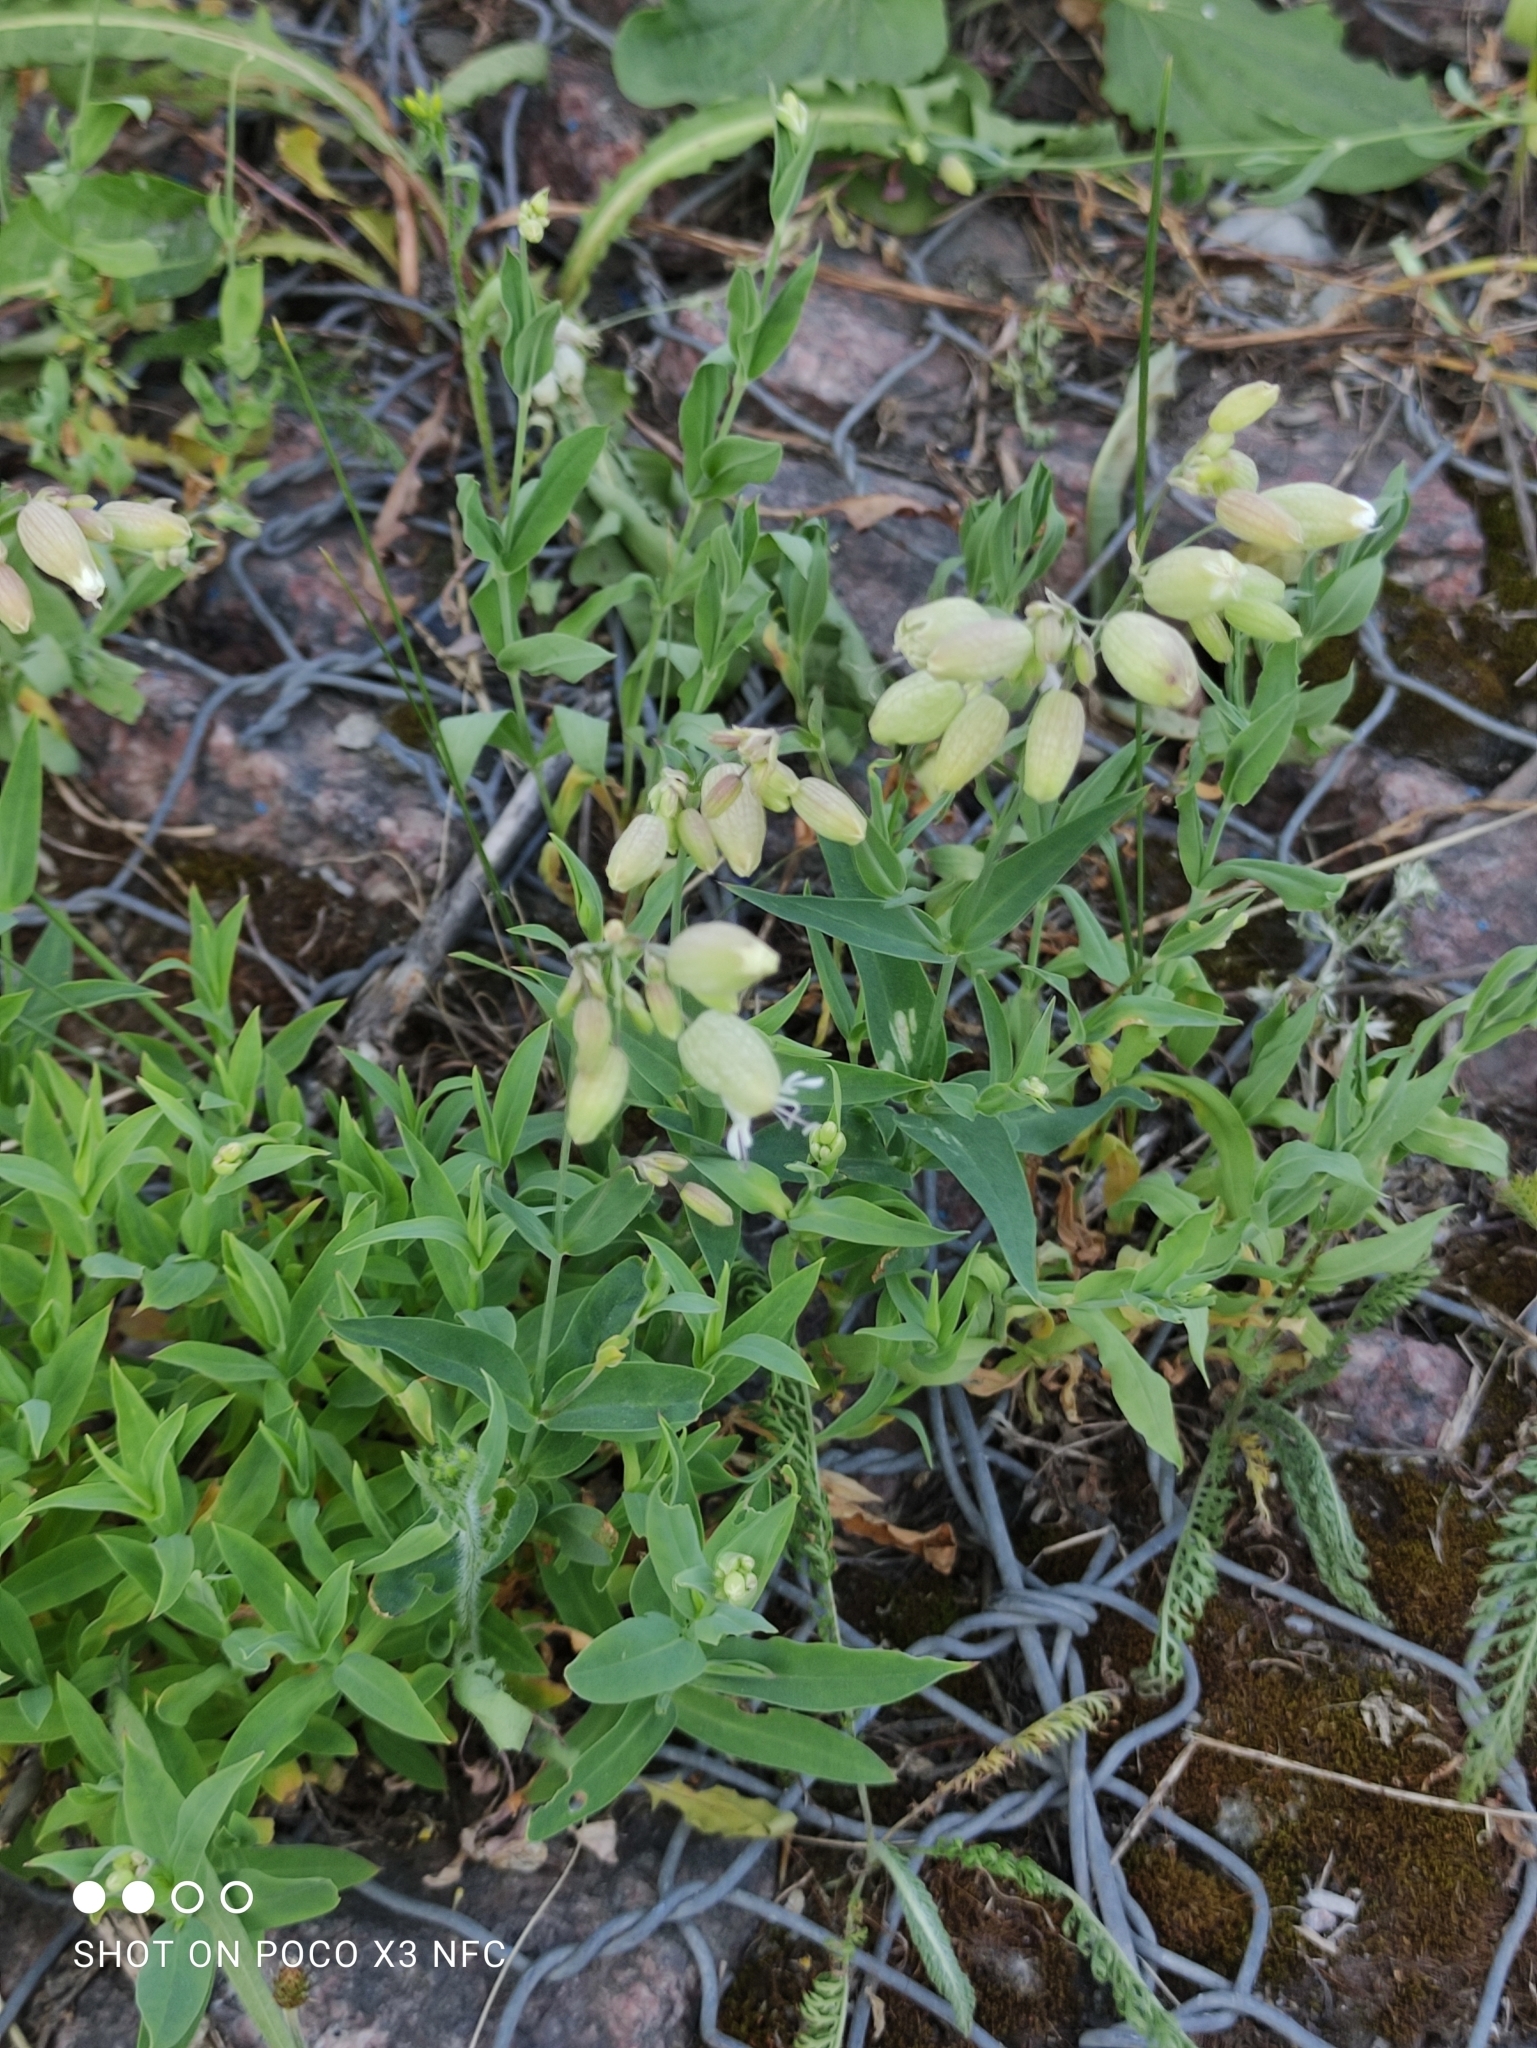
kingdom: Plantae
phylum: Tracheophyta
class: Magnoliopsida
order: Caryophyllales
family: Caryophyllaceae
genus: Silene
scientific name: Silene vulgaris
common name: Bladder campion
